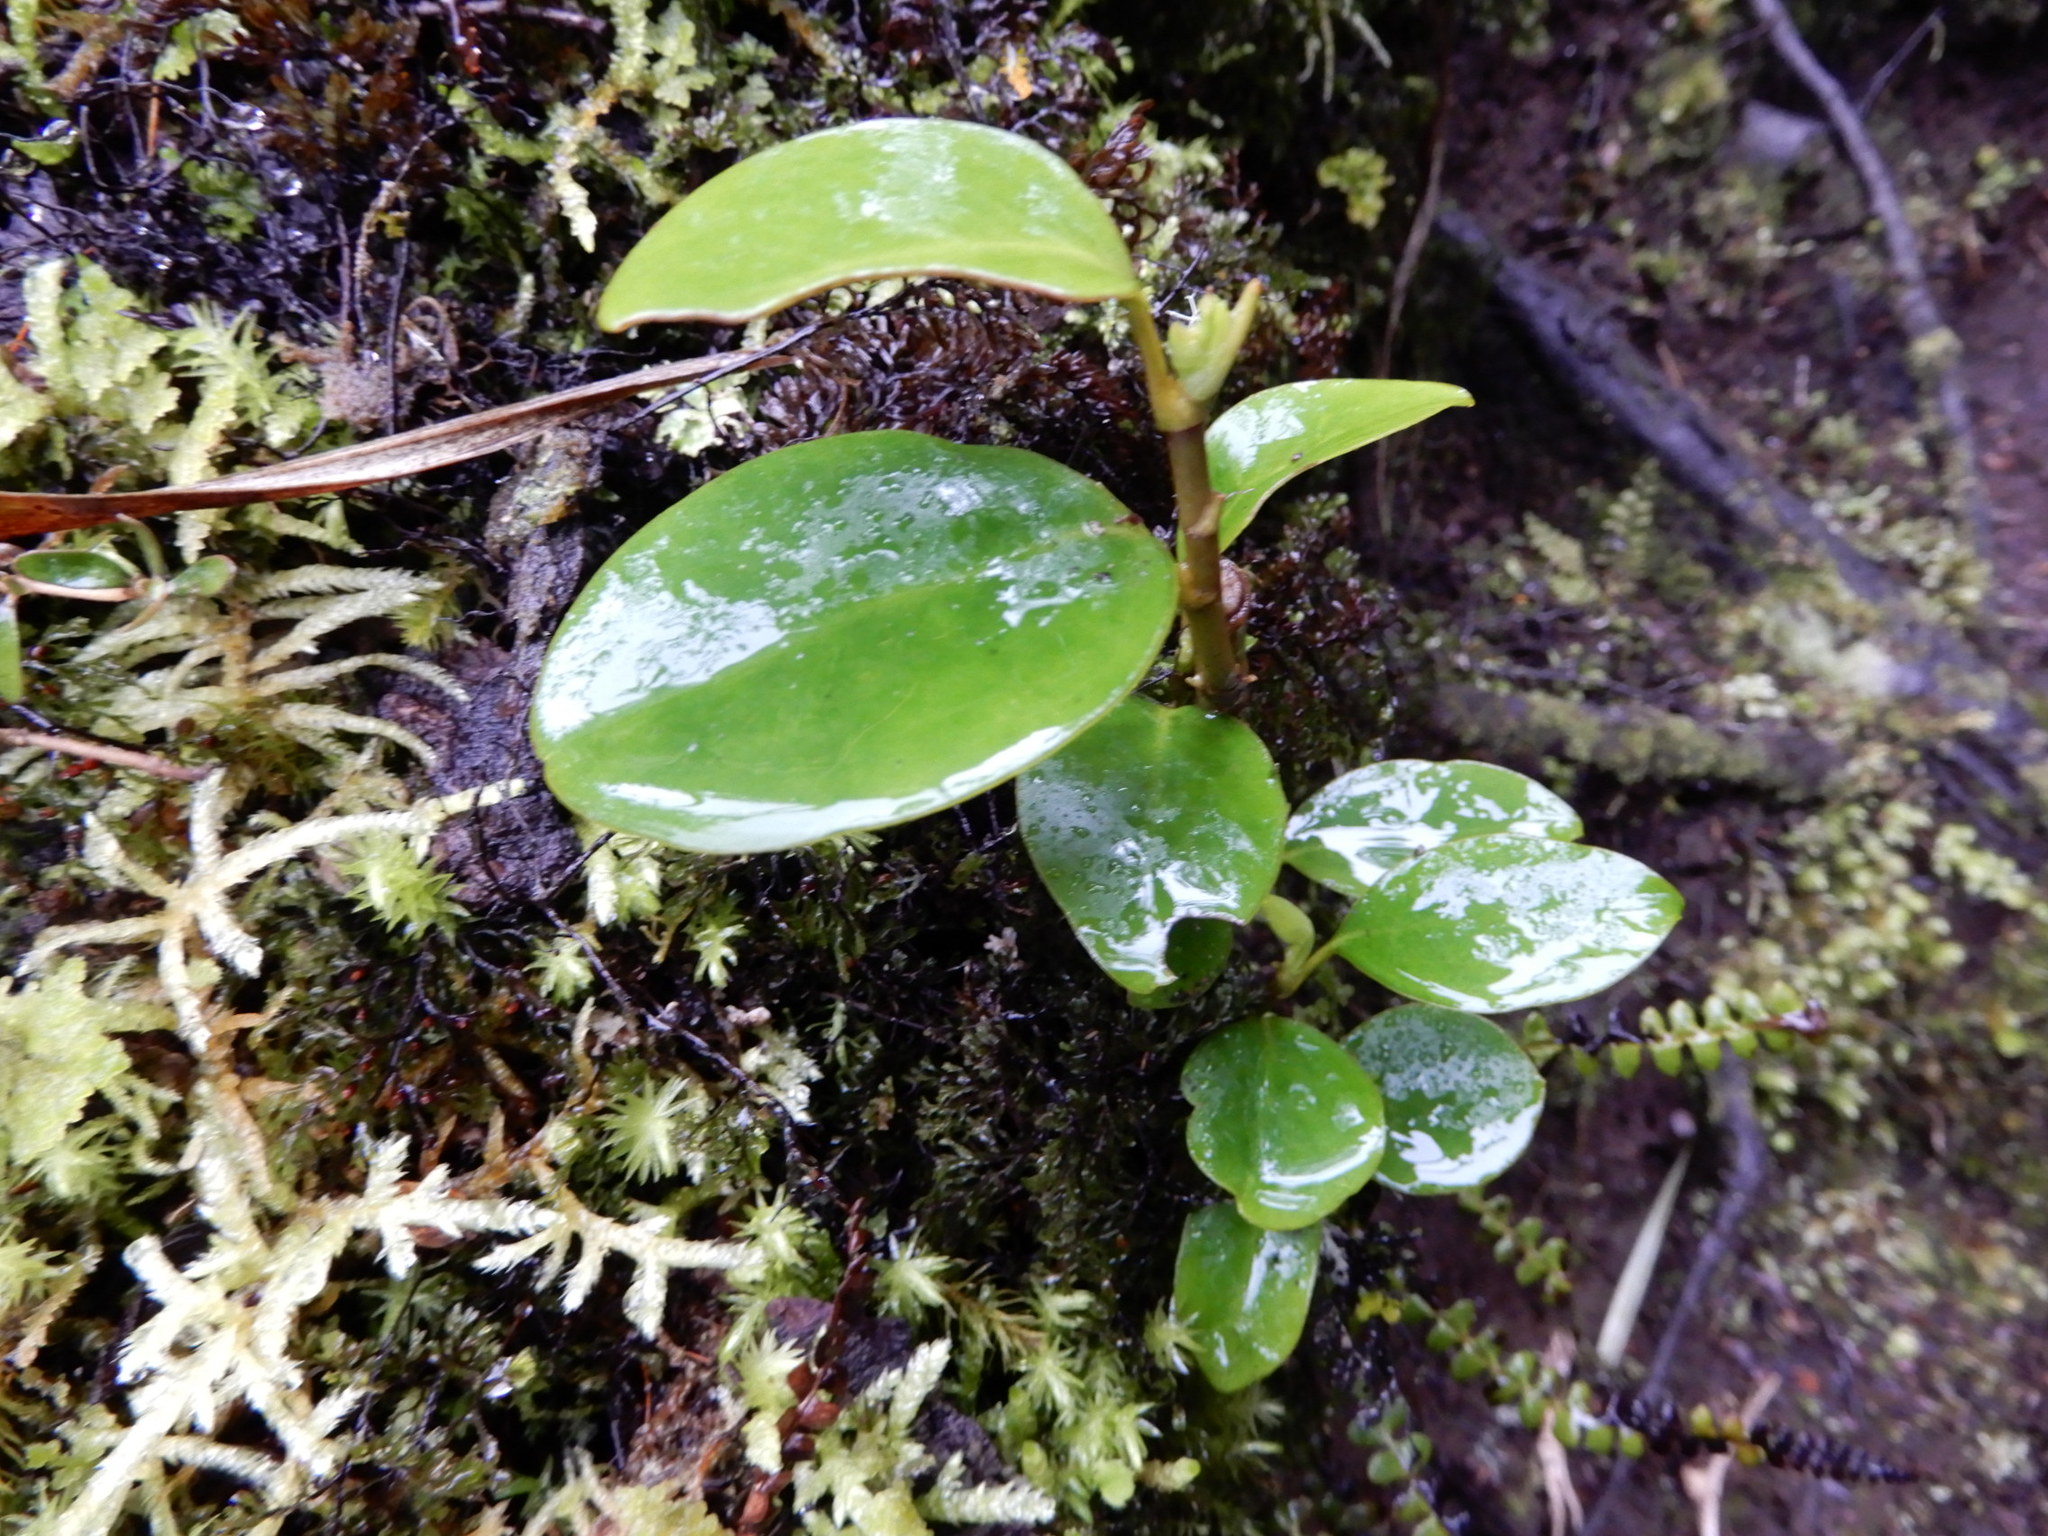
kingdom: Plantae
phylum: Tracheophyta
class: Magnoliopsida
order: Apiales
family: Griseliniaceae
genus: Griselinia
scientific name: Griselinia littoralis
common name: New zealand broadleaf
